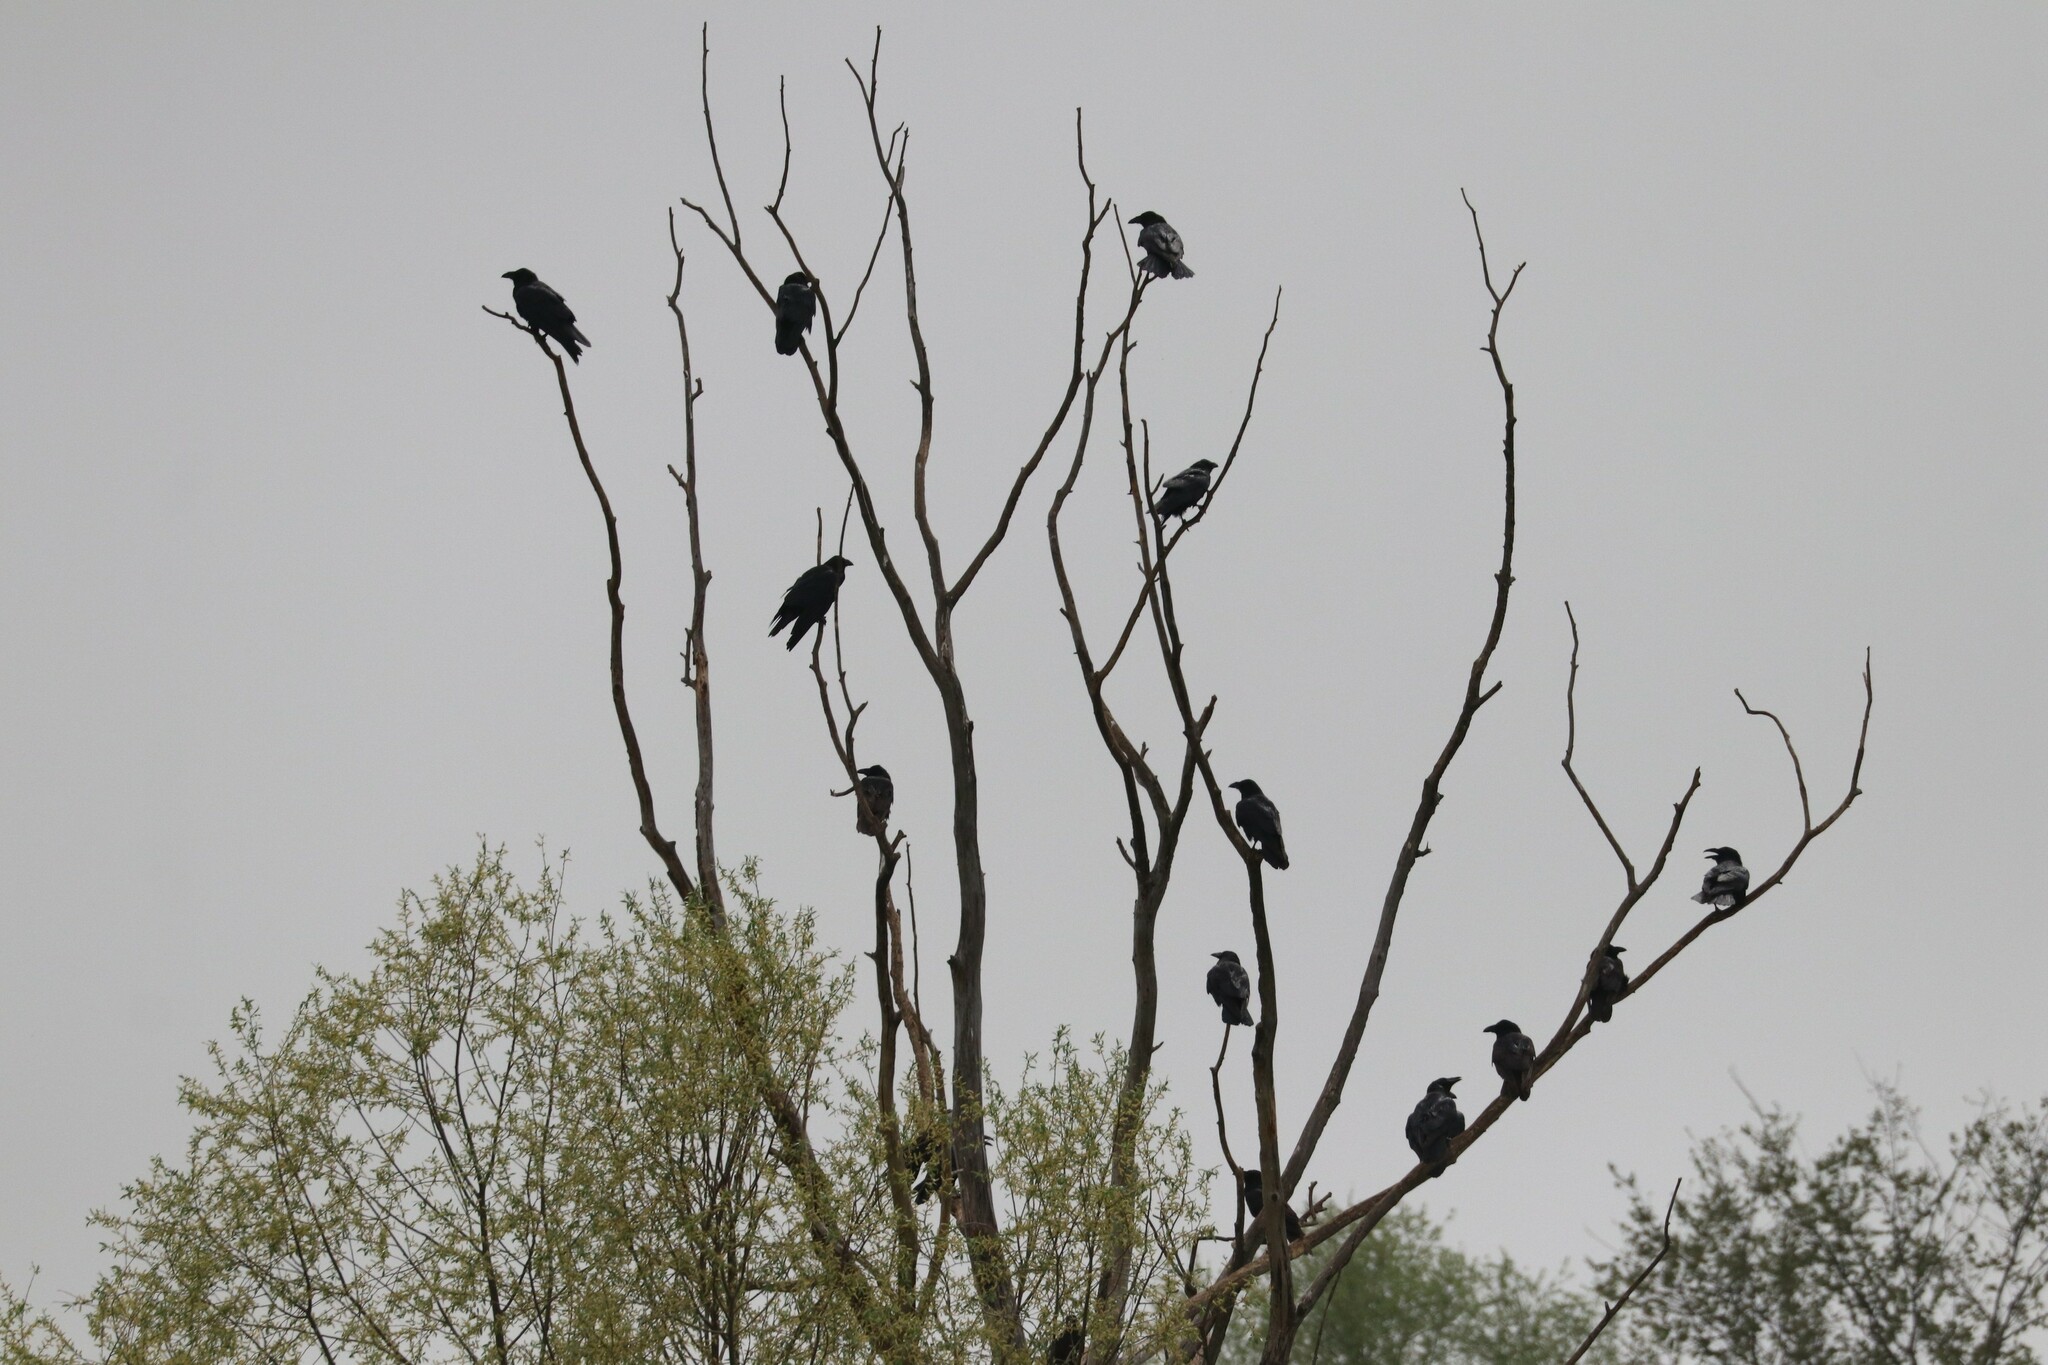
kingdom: Animalia
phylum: Chordata
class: Aves
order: Passeriformes
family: Corvidae
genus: Corvus
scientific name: Corvus corax
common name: Common raven
